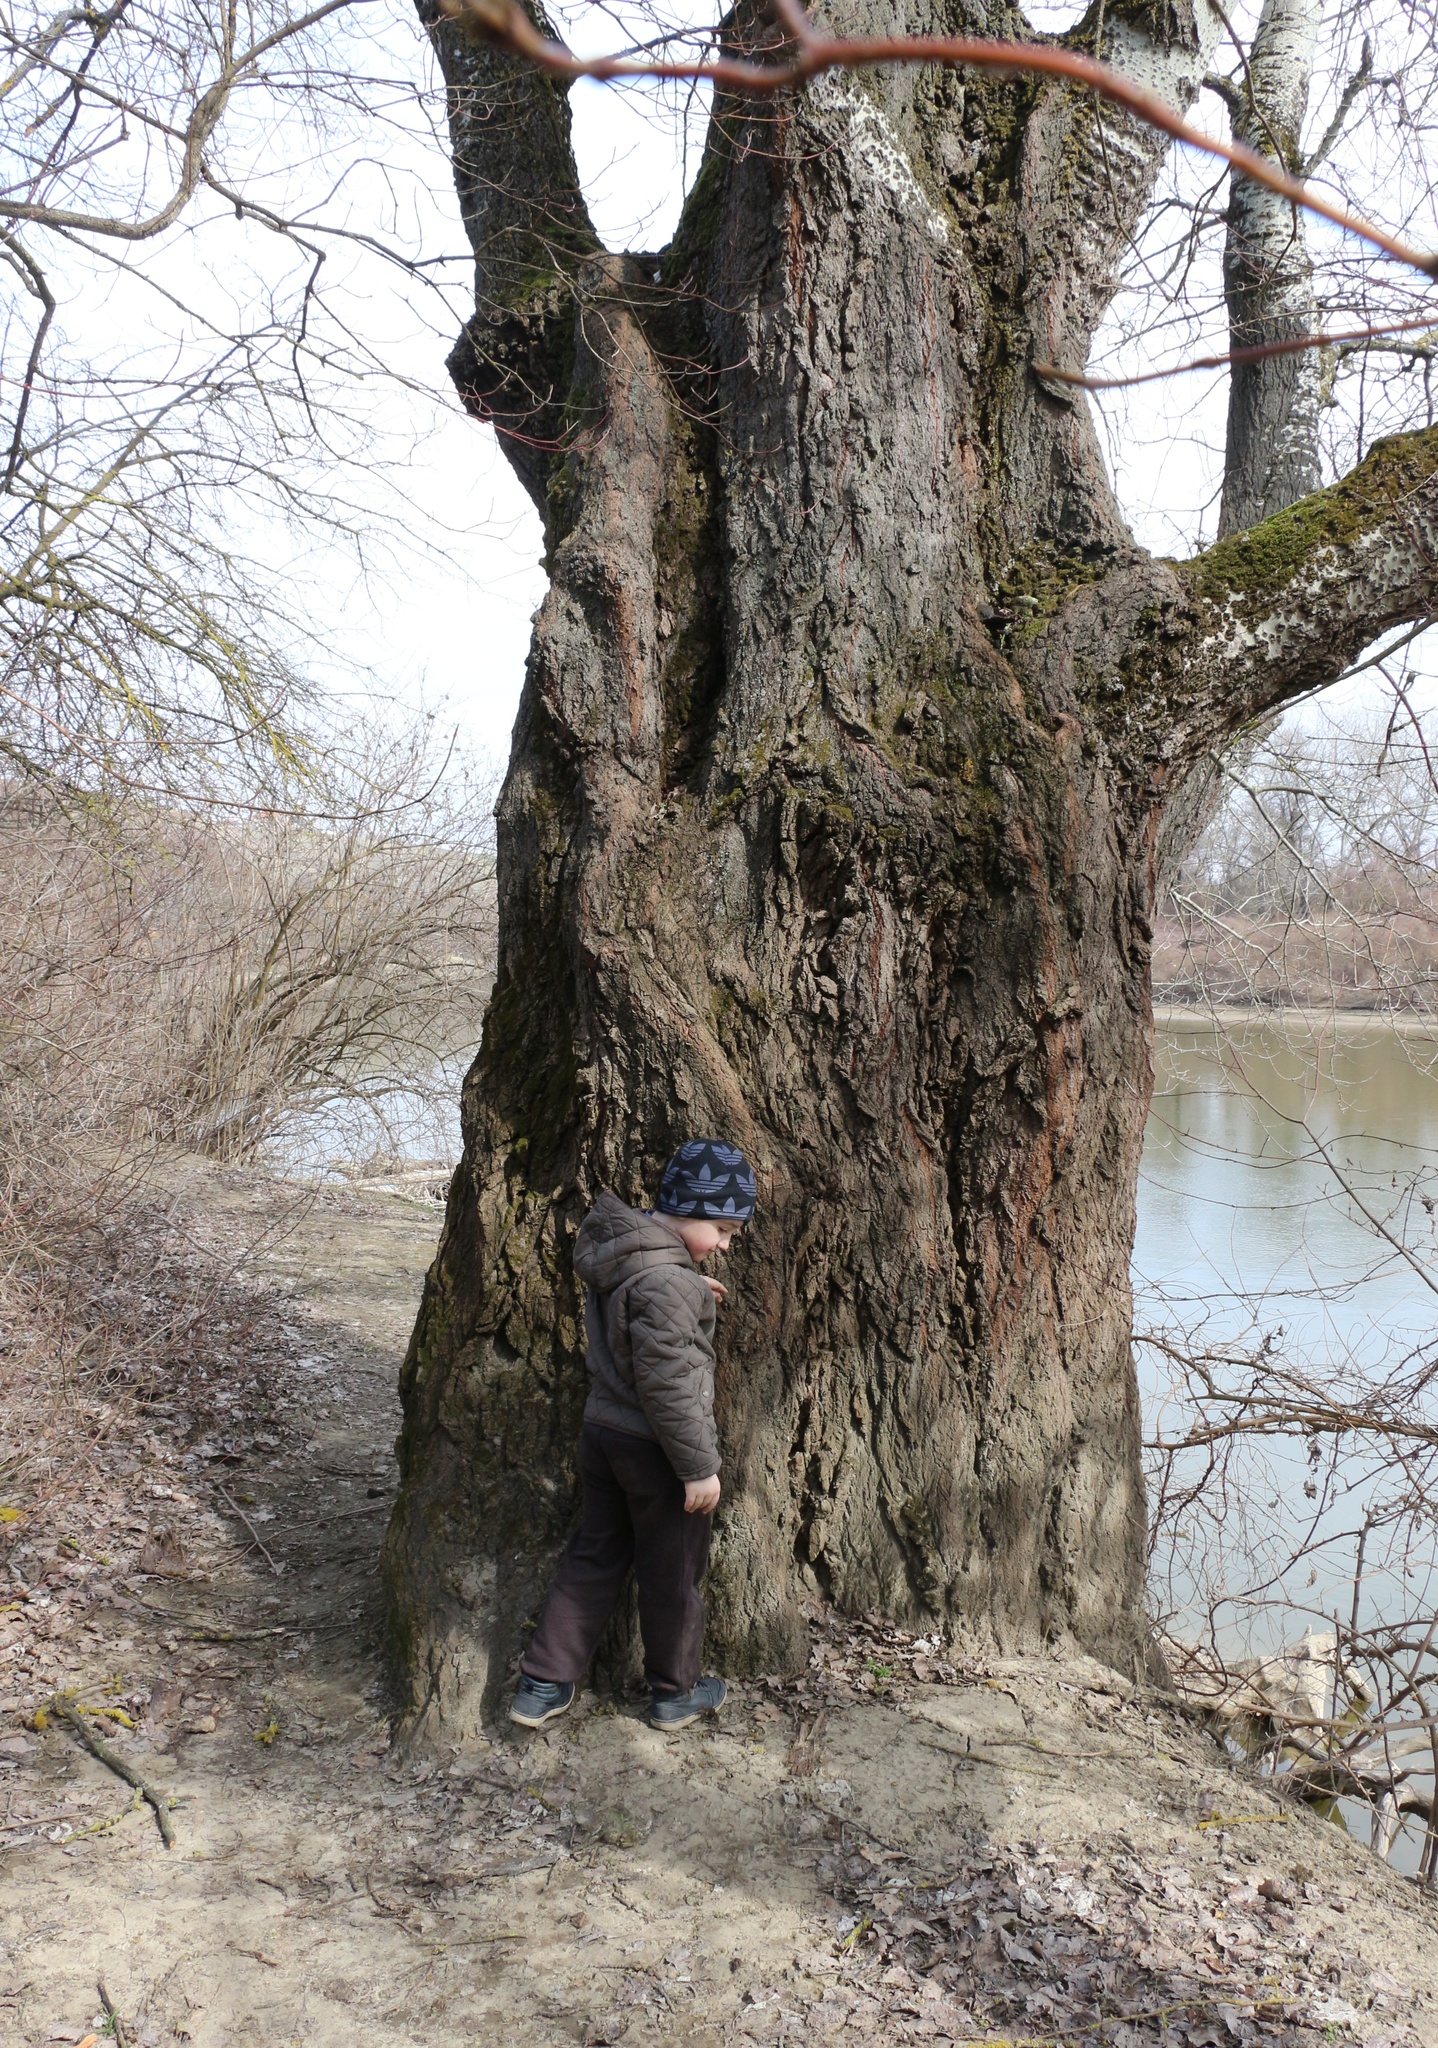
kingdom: Plantae
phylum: Tracheophyta
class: Magnoliopsida
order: Malpighiales
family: Salicaceae
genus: Populus
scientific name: Populus alba
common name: White poplar
